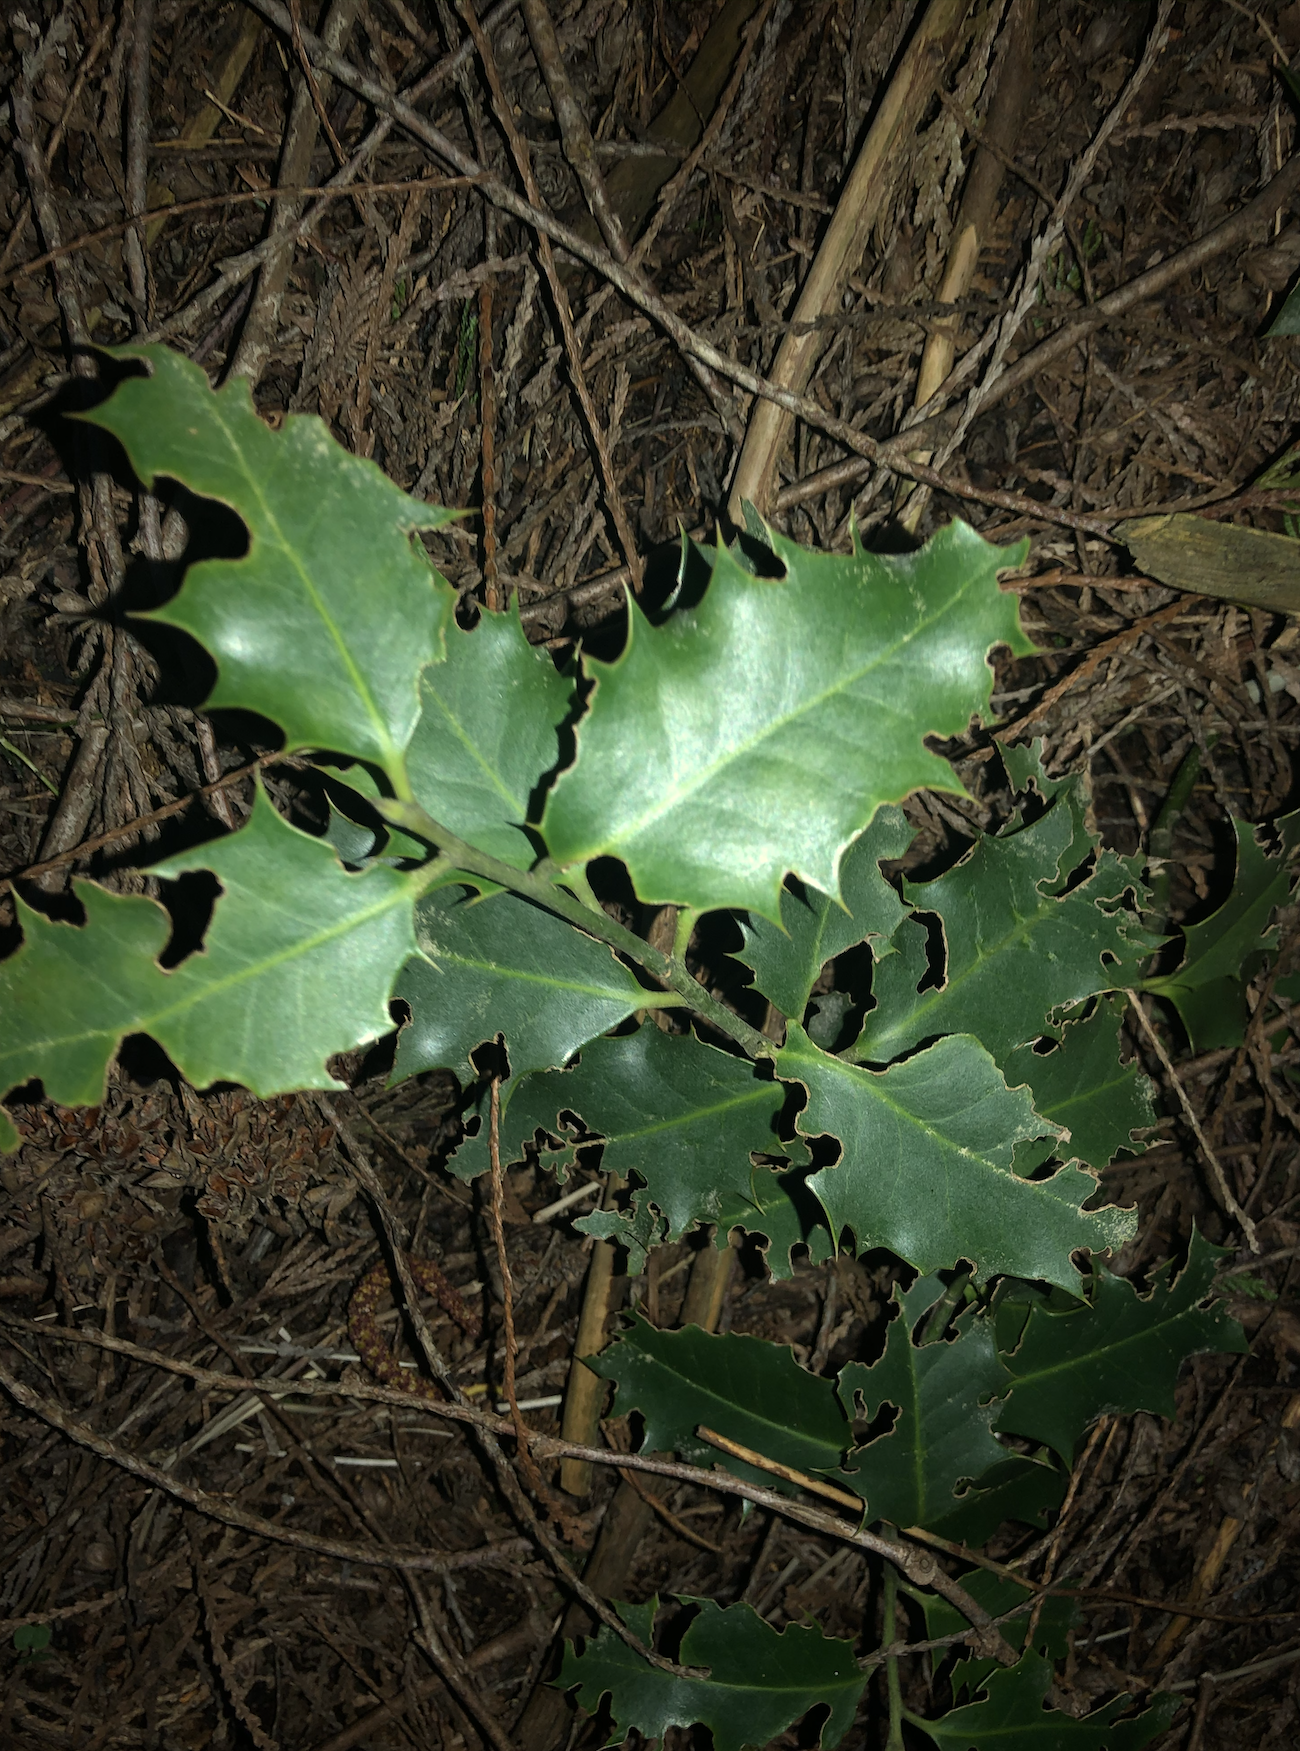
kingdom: Plantae
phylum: Tracheophyta
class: Magnoliopsida
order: Aquifoliales
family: Aquifoliaceae
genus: Ilex
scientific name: Ilex aquifolium
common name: English holly
